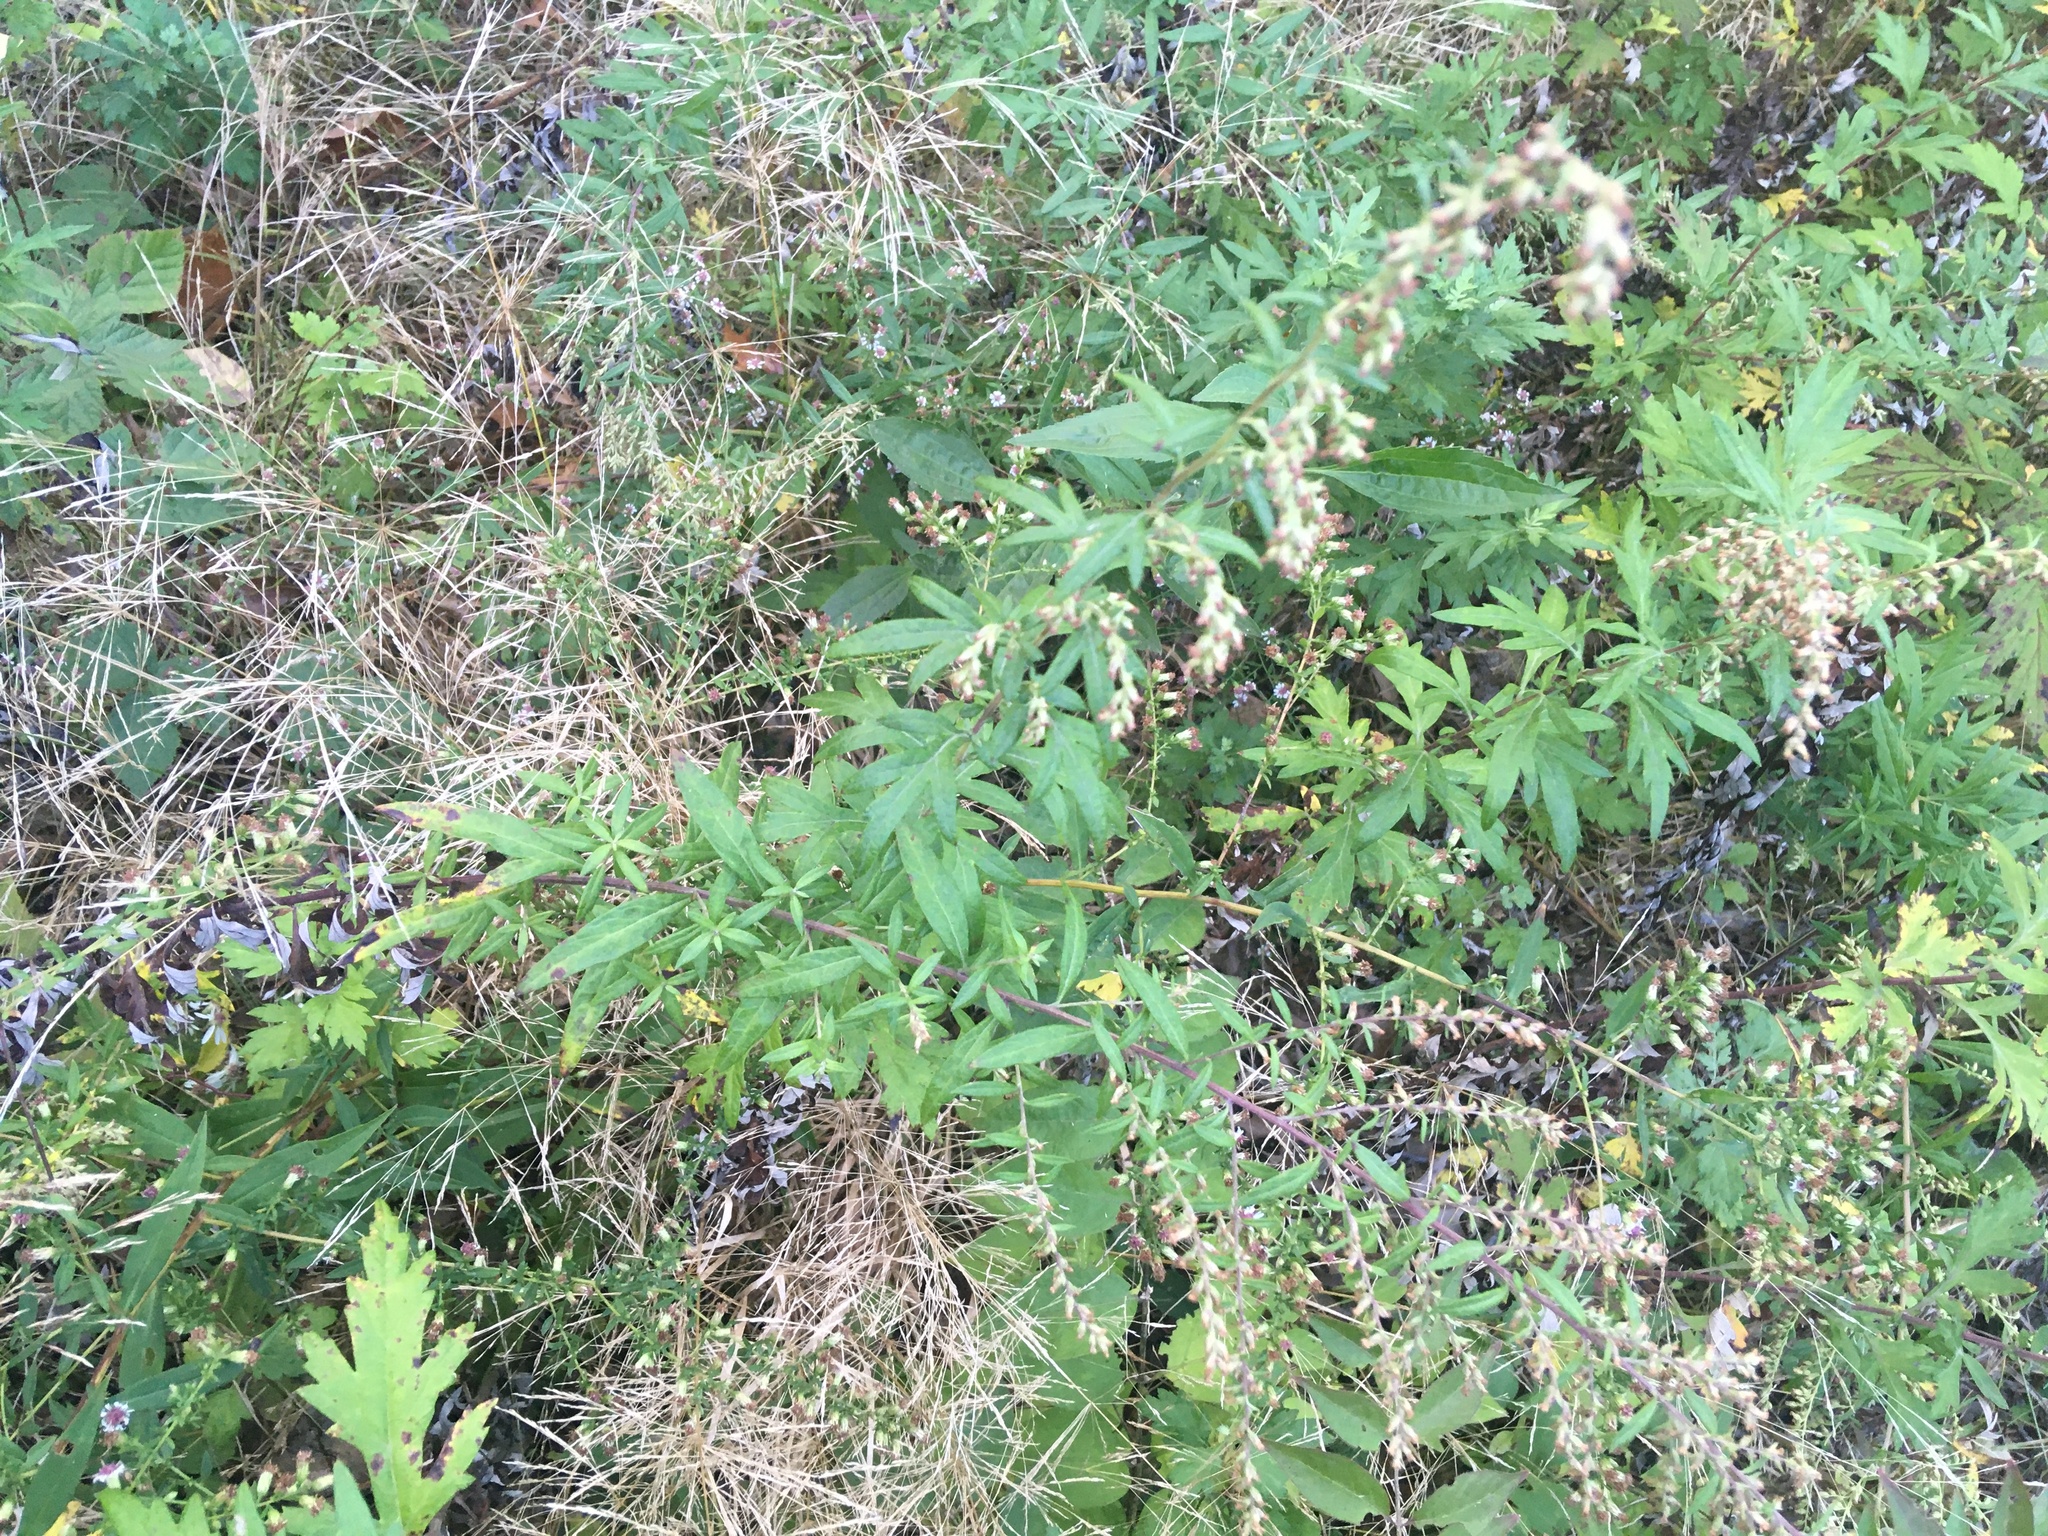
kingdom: Plantae
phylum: Tracheophyta
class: Magnoliopsida
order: Asterales
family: Asteraceae
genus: Artemisia
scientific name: Artemisia vulgaris
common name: Mugwort
